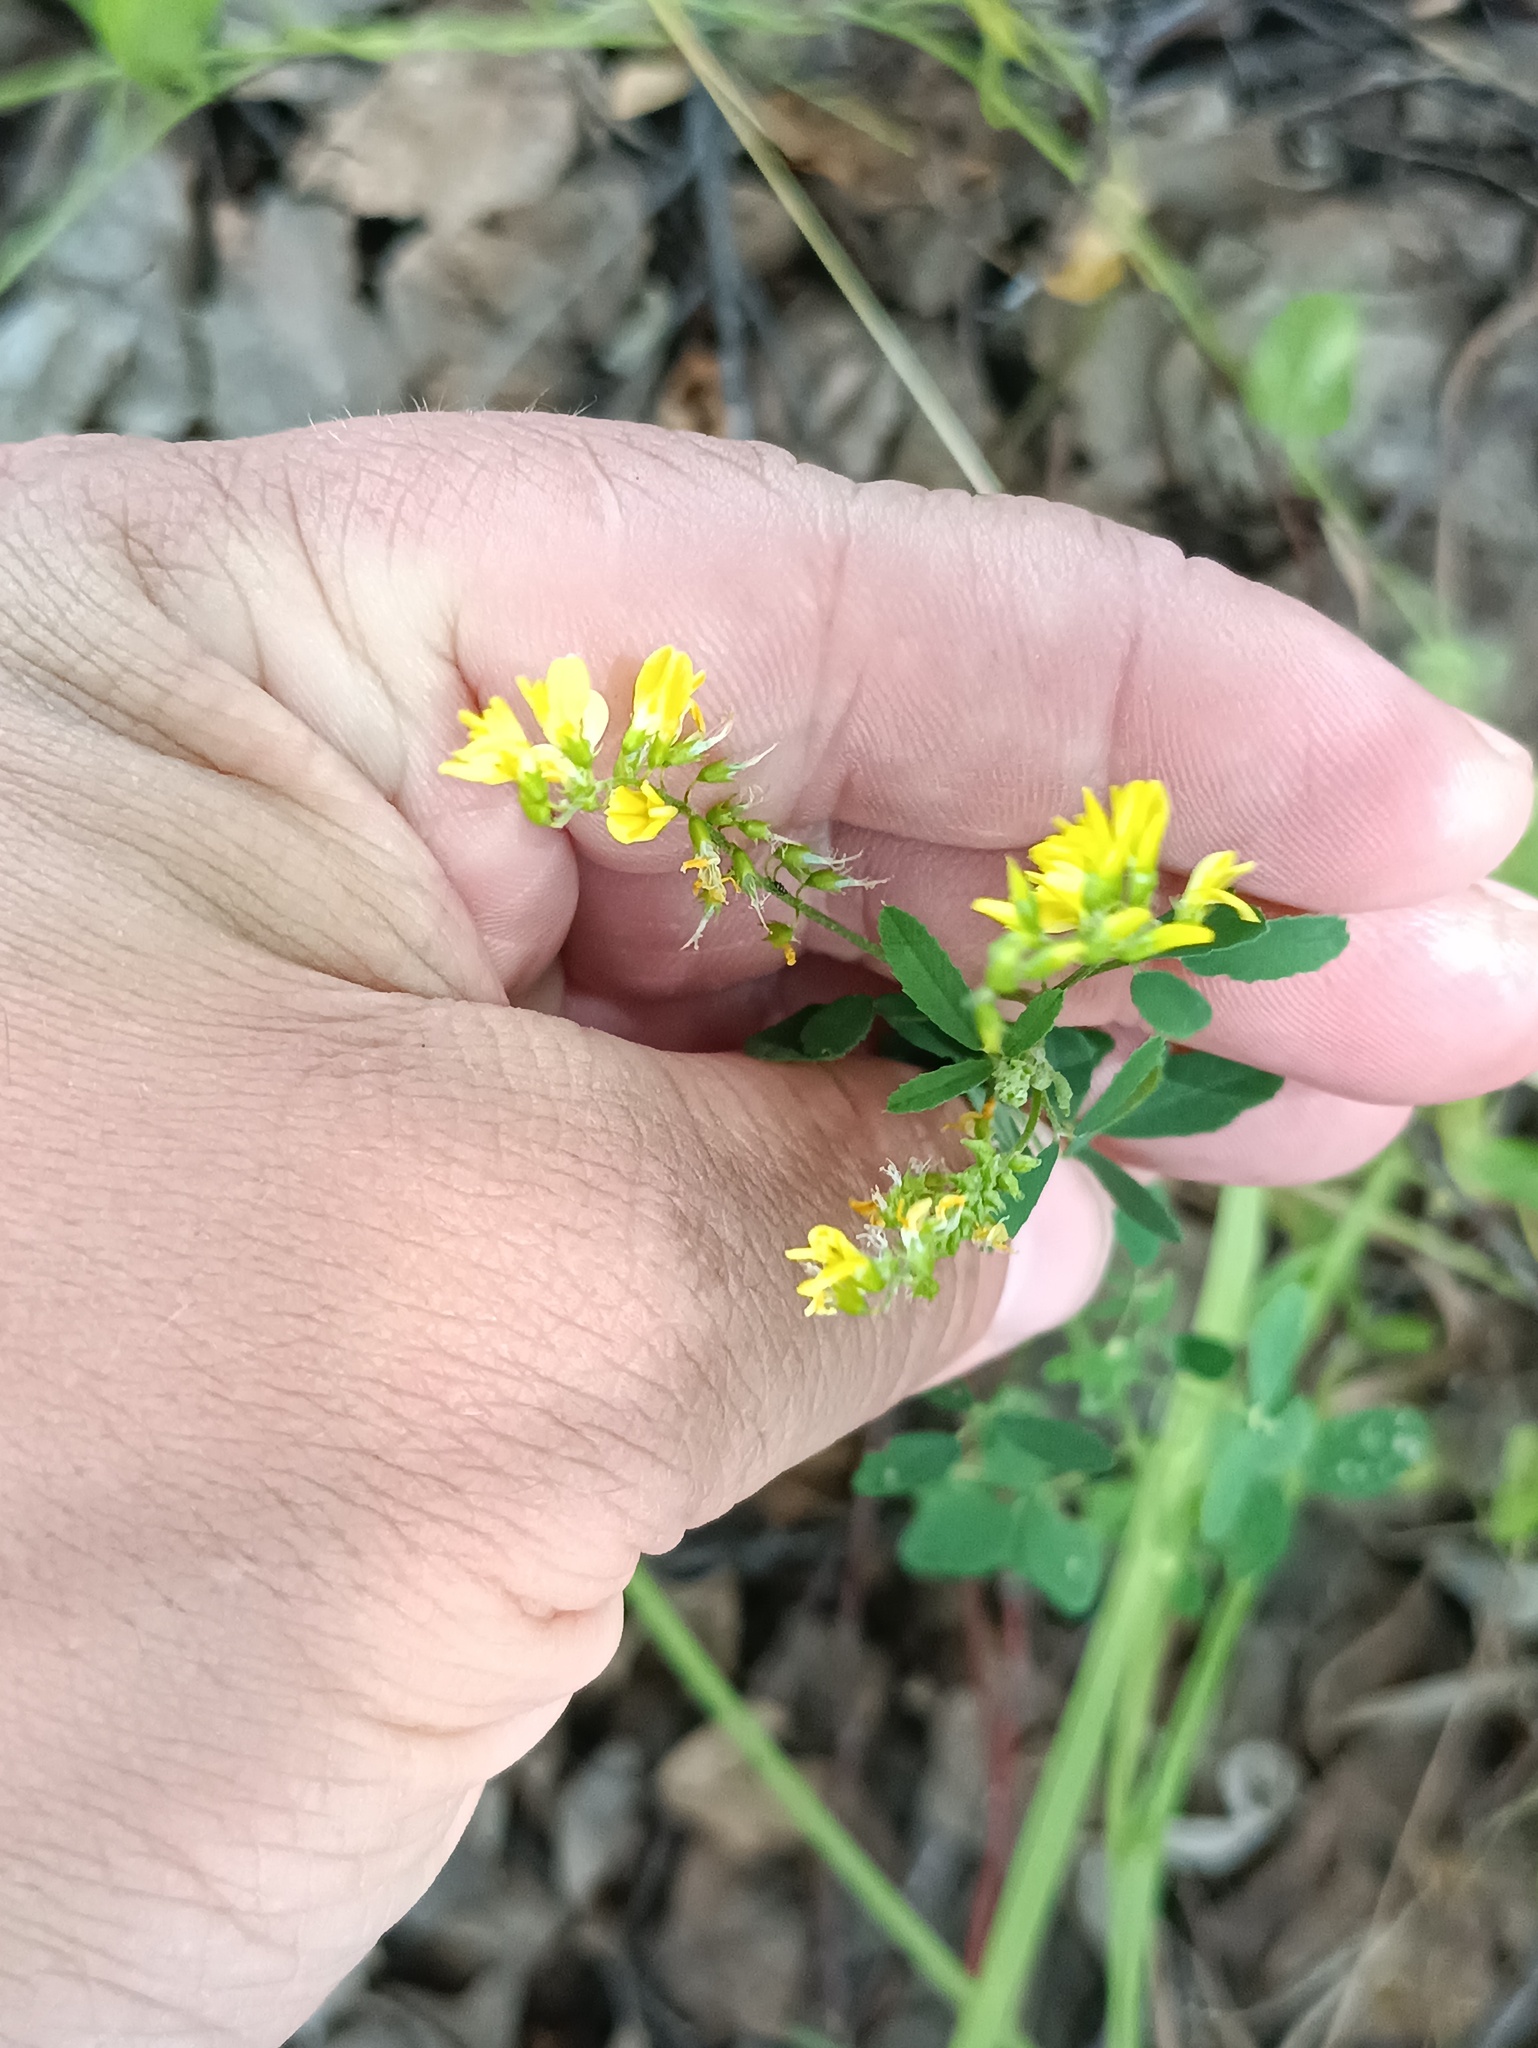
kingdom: Plantae
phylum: Tracheophyta
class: Magnoliopsida
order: Fabales
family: Fabaceae
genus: Melilotus
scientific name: Melilotus officinalis
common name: Sweetclover
